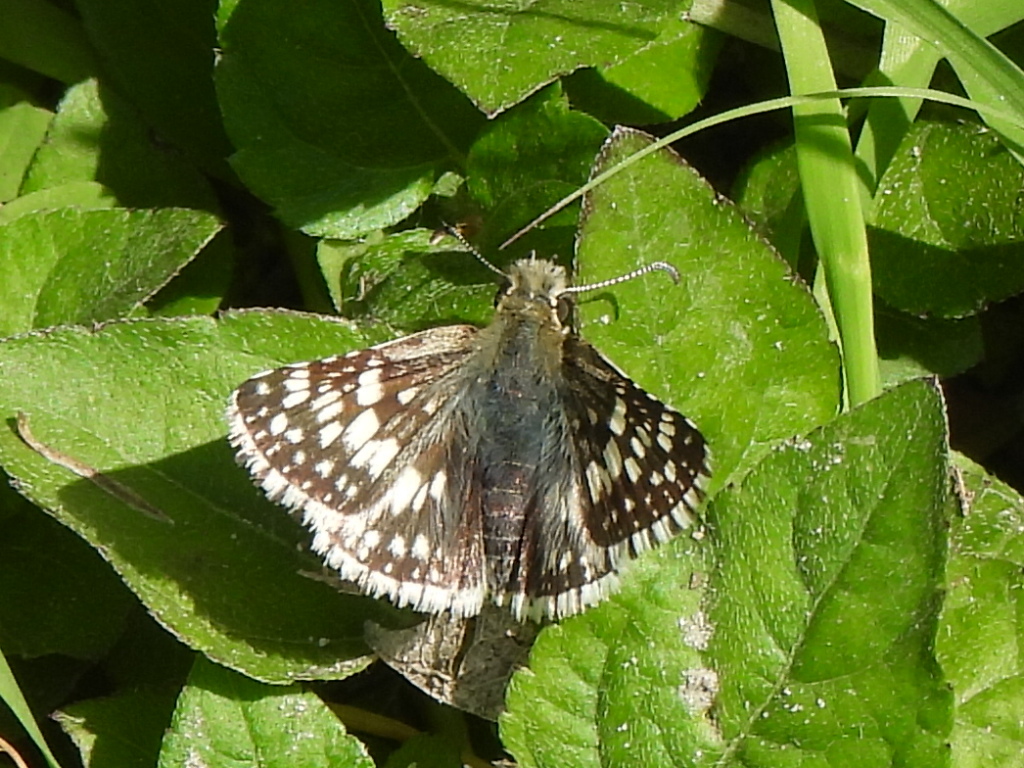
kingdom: Animalia
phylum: Arthropoda
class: Insecta
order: Lepidoptera
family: Hesperiidae
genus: Burnsius
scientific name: Burnsius
